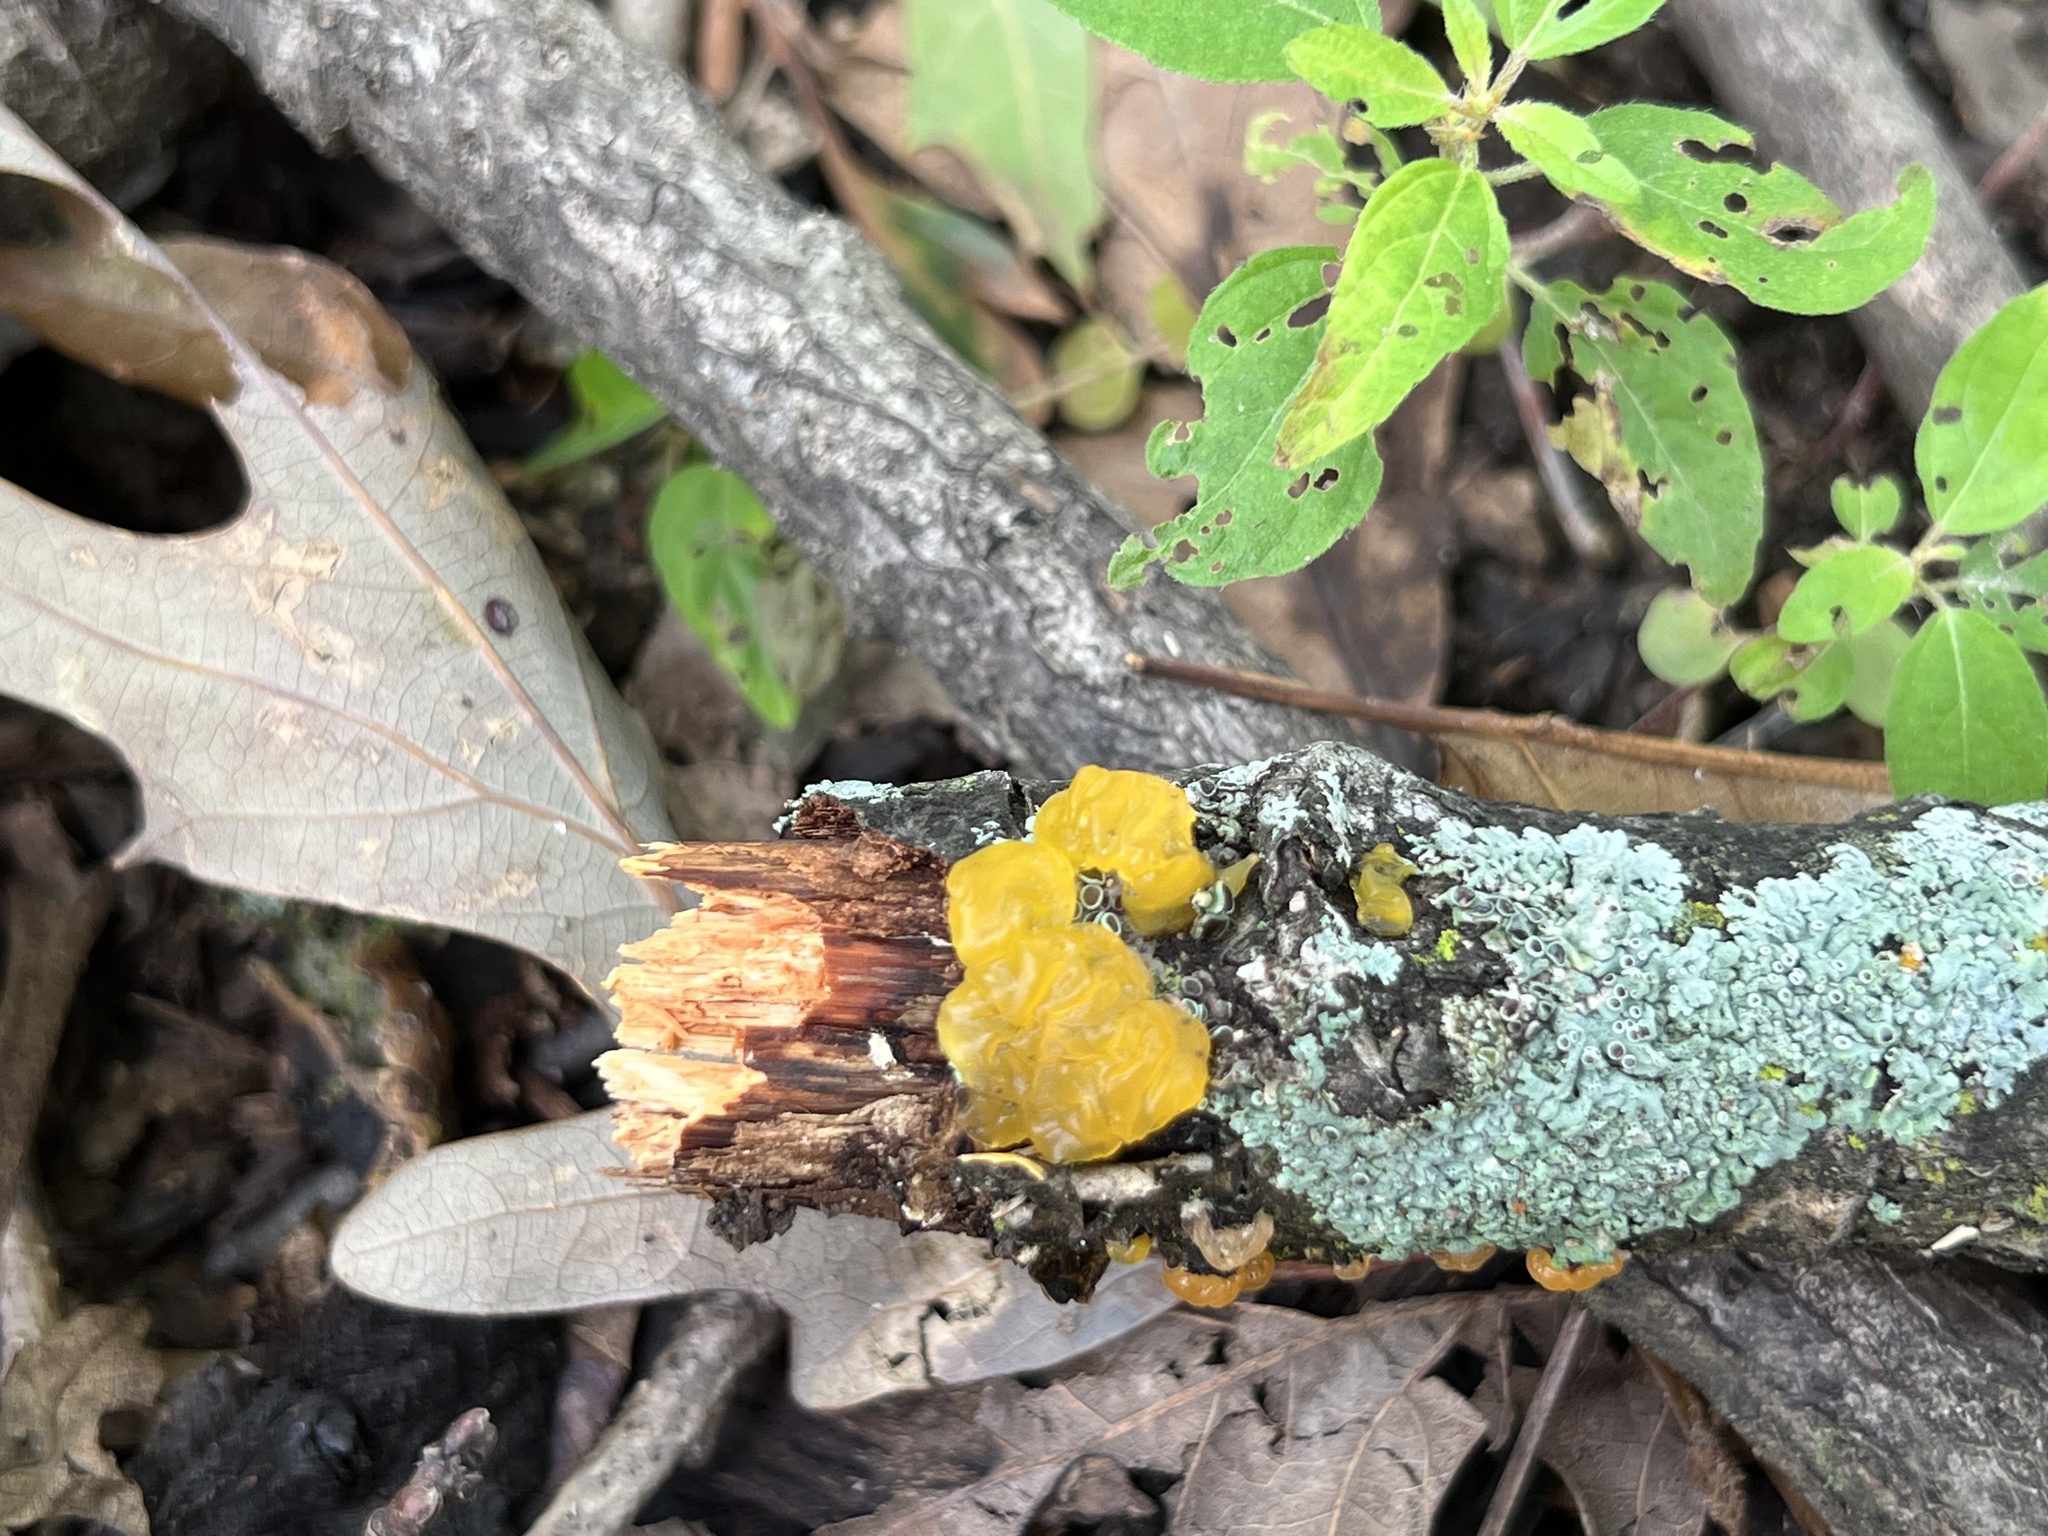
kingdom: Fungi
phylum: Basidiomycota
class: Tremellomycetes
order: Tremellales
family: Tremellaceae
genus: Tremella
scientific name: Tremella mesenterica
